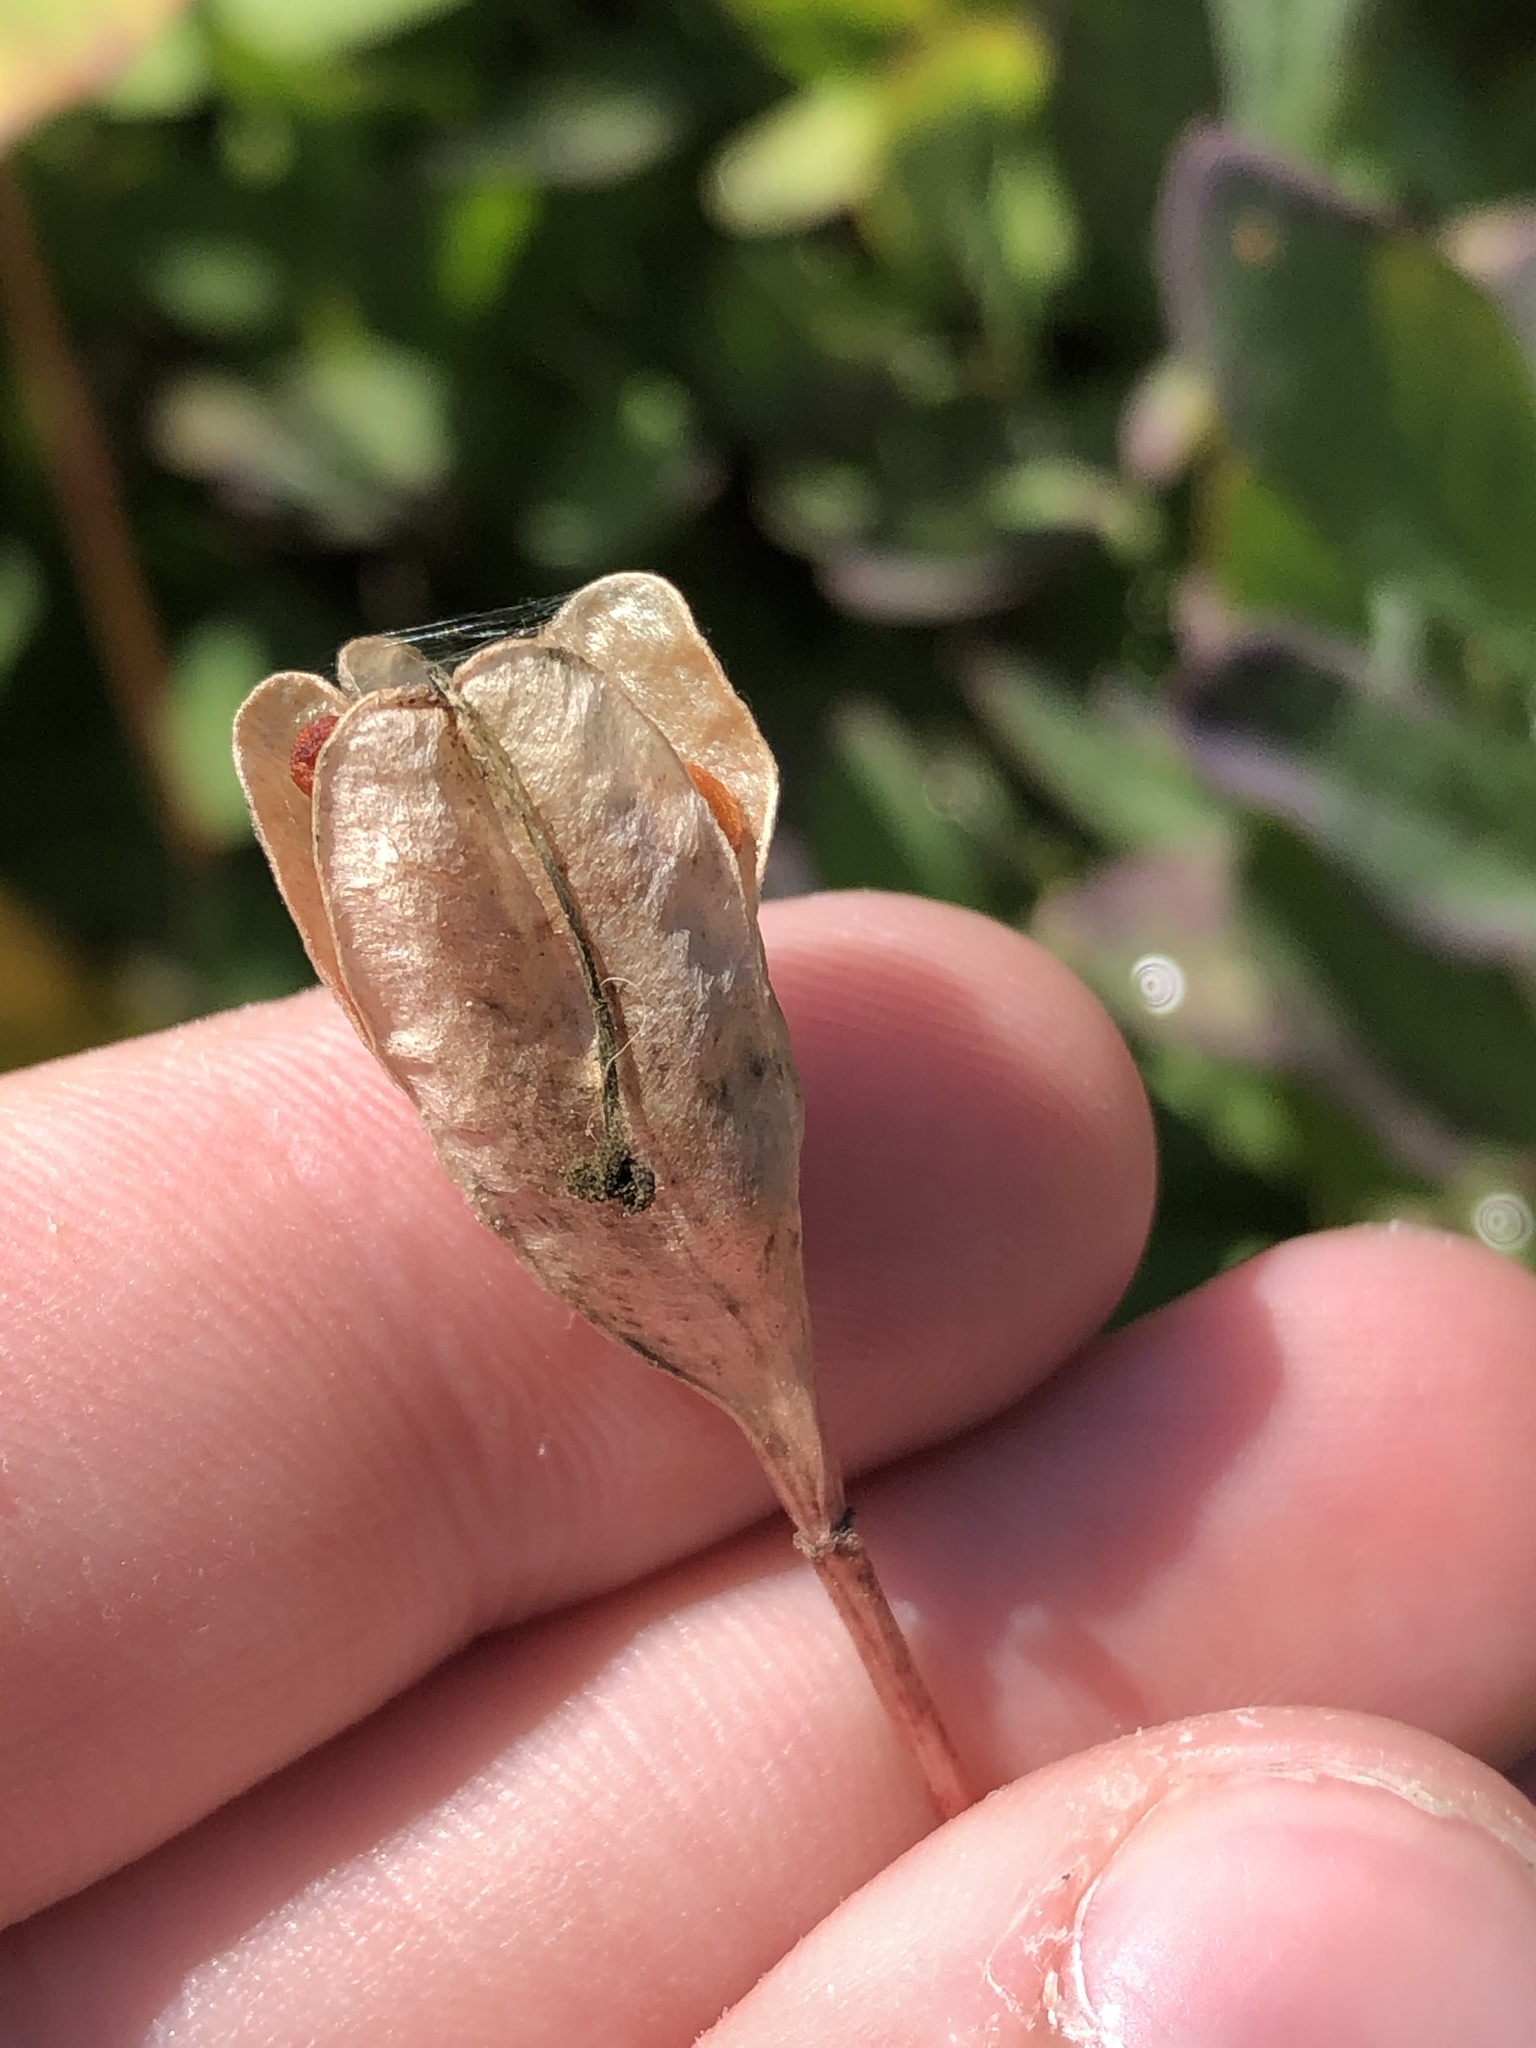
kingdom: Plantae
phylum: Tracheophyta
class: Liliopsida
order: Liliales
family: Liliaceae
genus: Erythronium
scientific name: Erythronium montanum
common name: Avalanche lily
